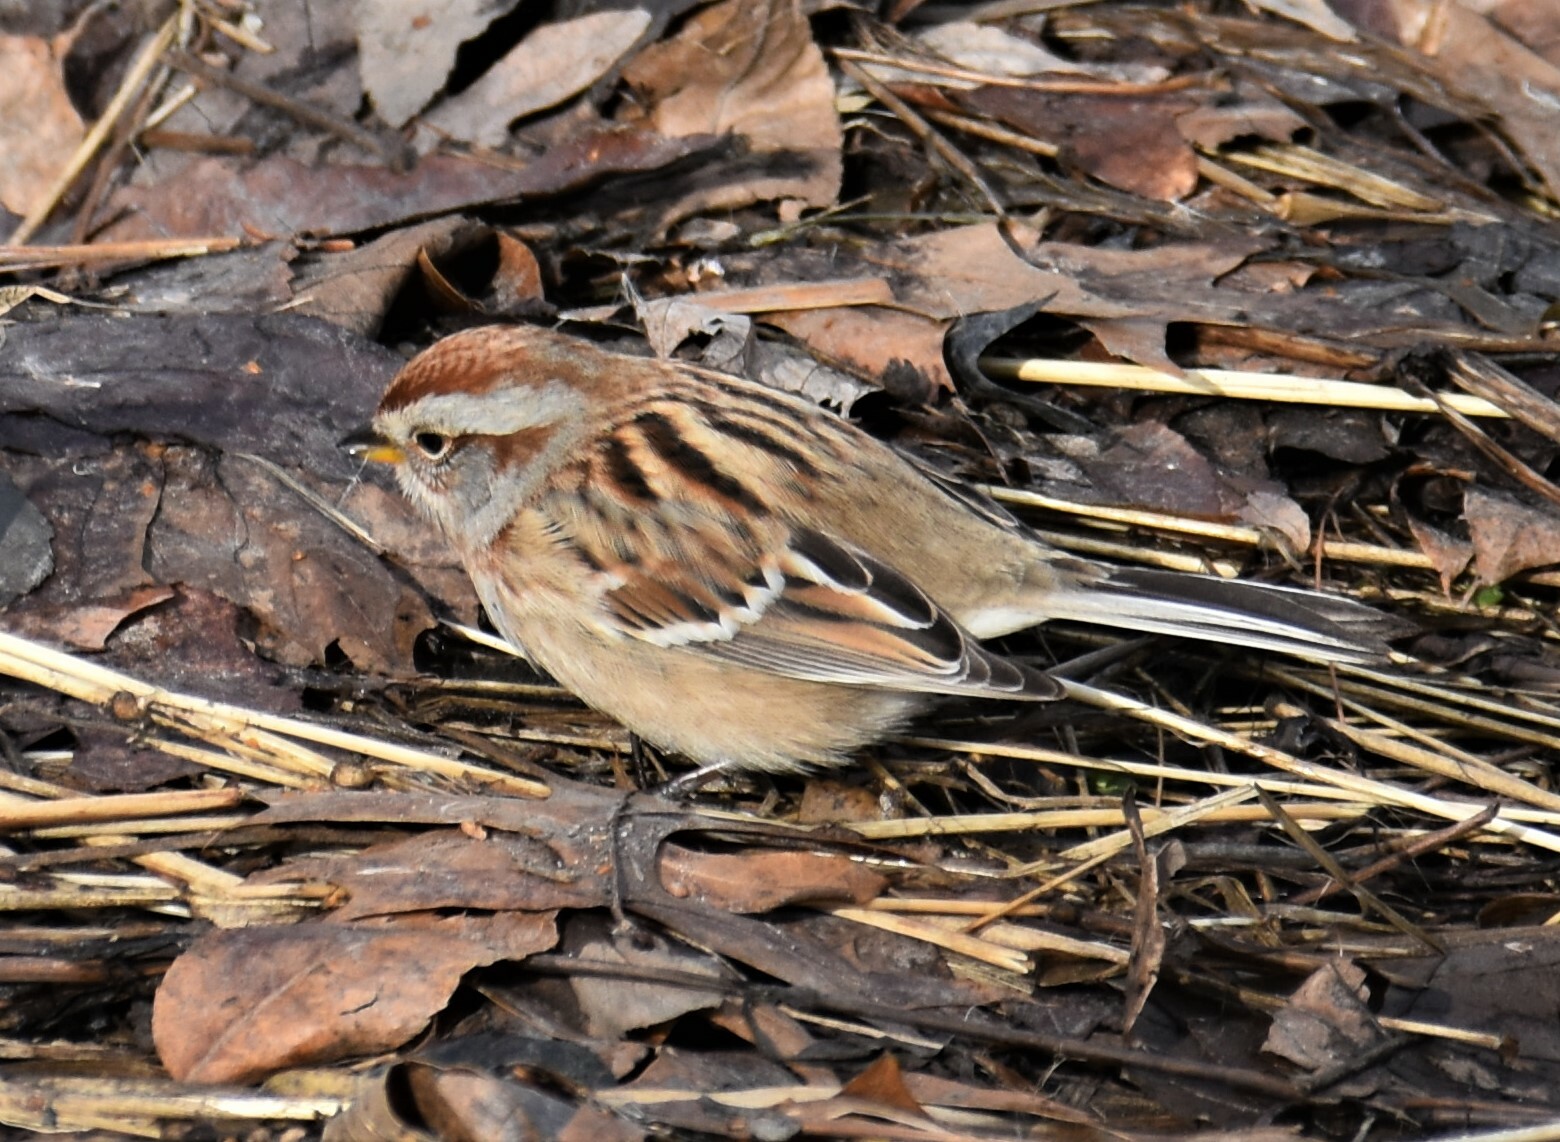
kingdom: Animalia
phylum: Chordata
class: Aves
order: Passeriformes
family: Passerellidae
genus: Spizelloides
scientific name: Spizelloides arborea
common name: American tree sparrow
